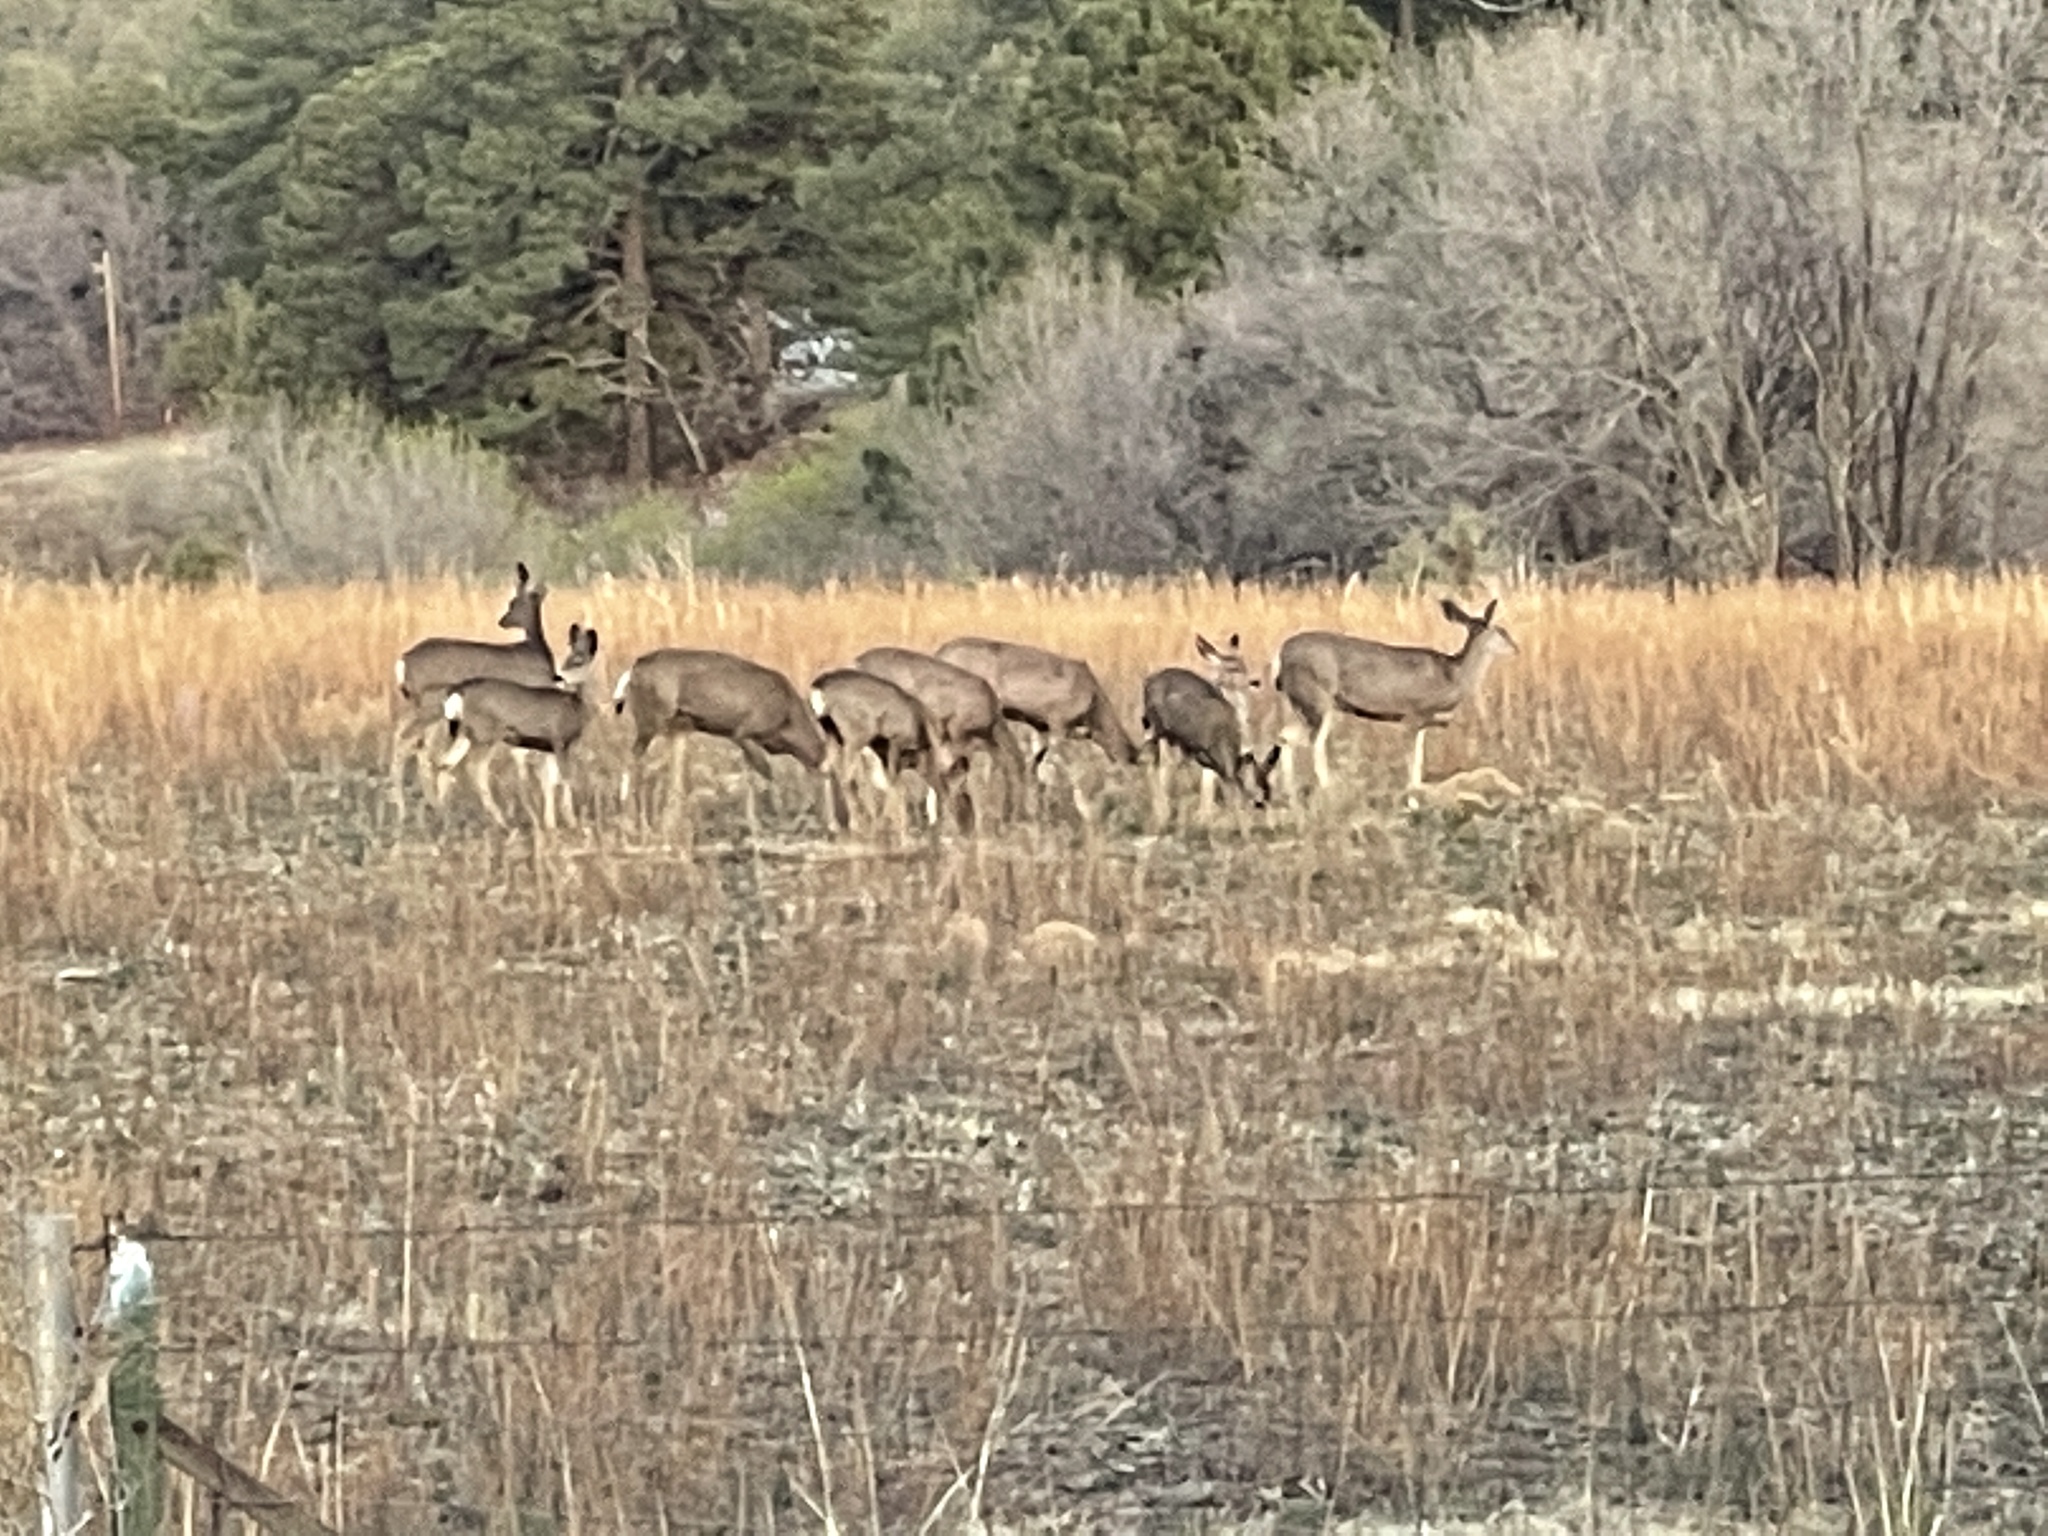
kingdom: Animalia
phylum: Chordata
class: Mammalia
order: Artiodactyla
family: Cervidae
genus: Odocoileus
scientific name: Odocoileus hemionus
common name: Mule deer
